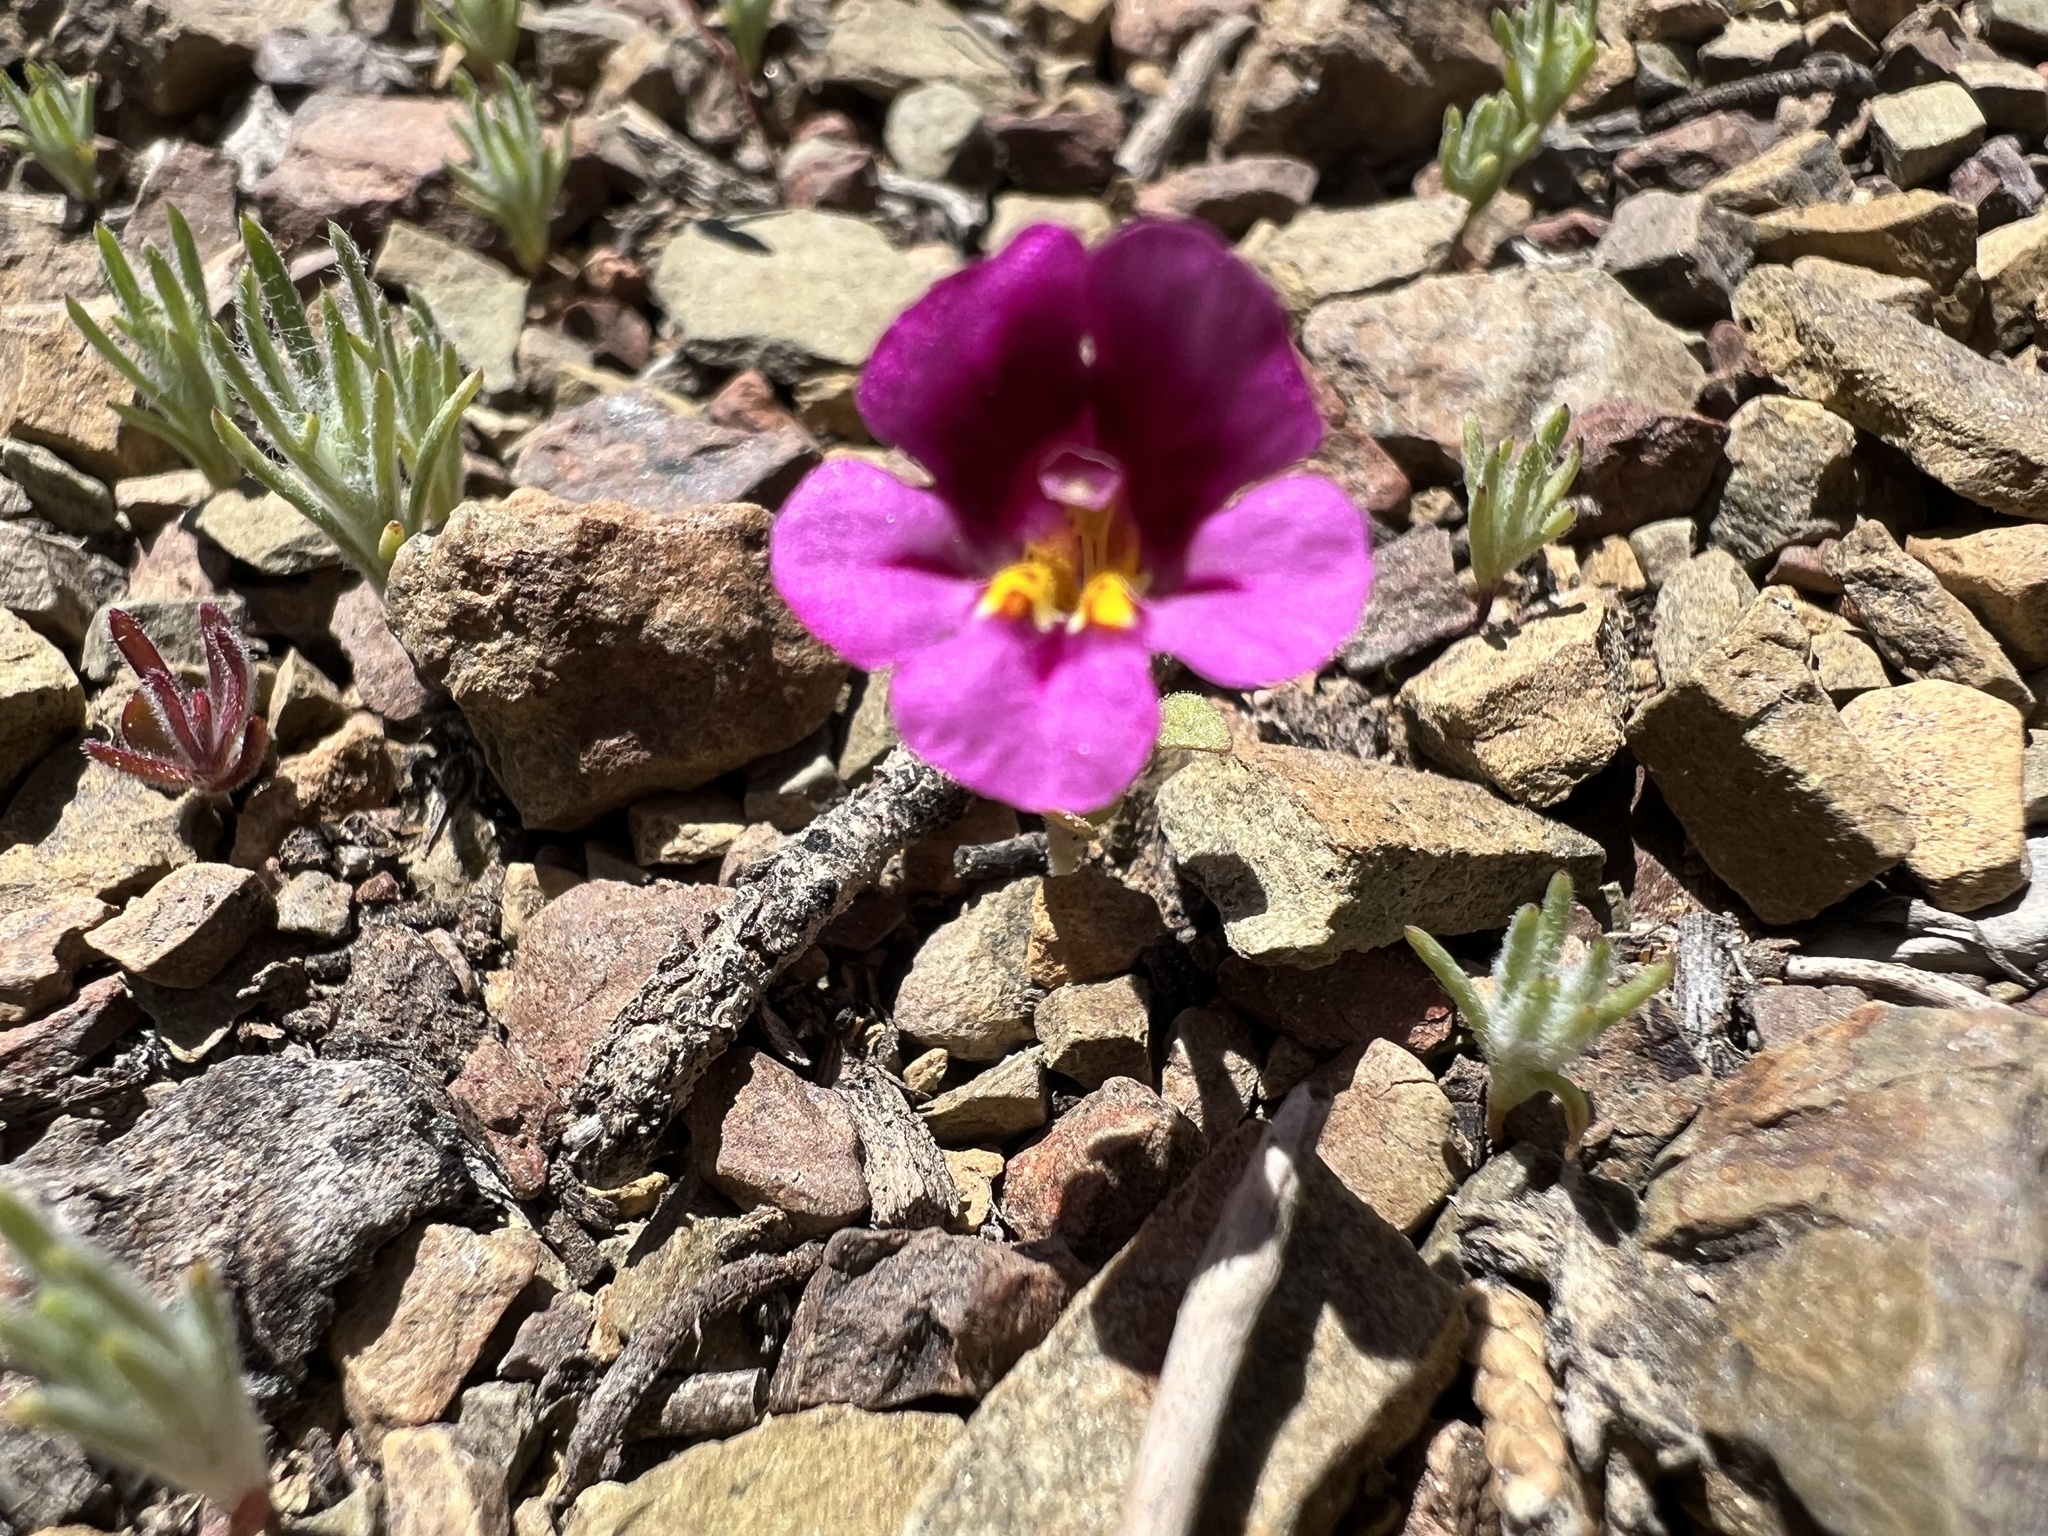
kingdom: Plantae
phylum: Tracheophyta
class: Magnoliopsida
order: Lamiales
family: Phrymaceae
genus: Diplacus
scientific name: Diplacus mephiticus
